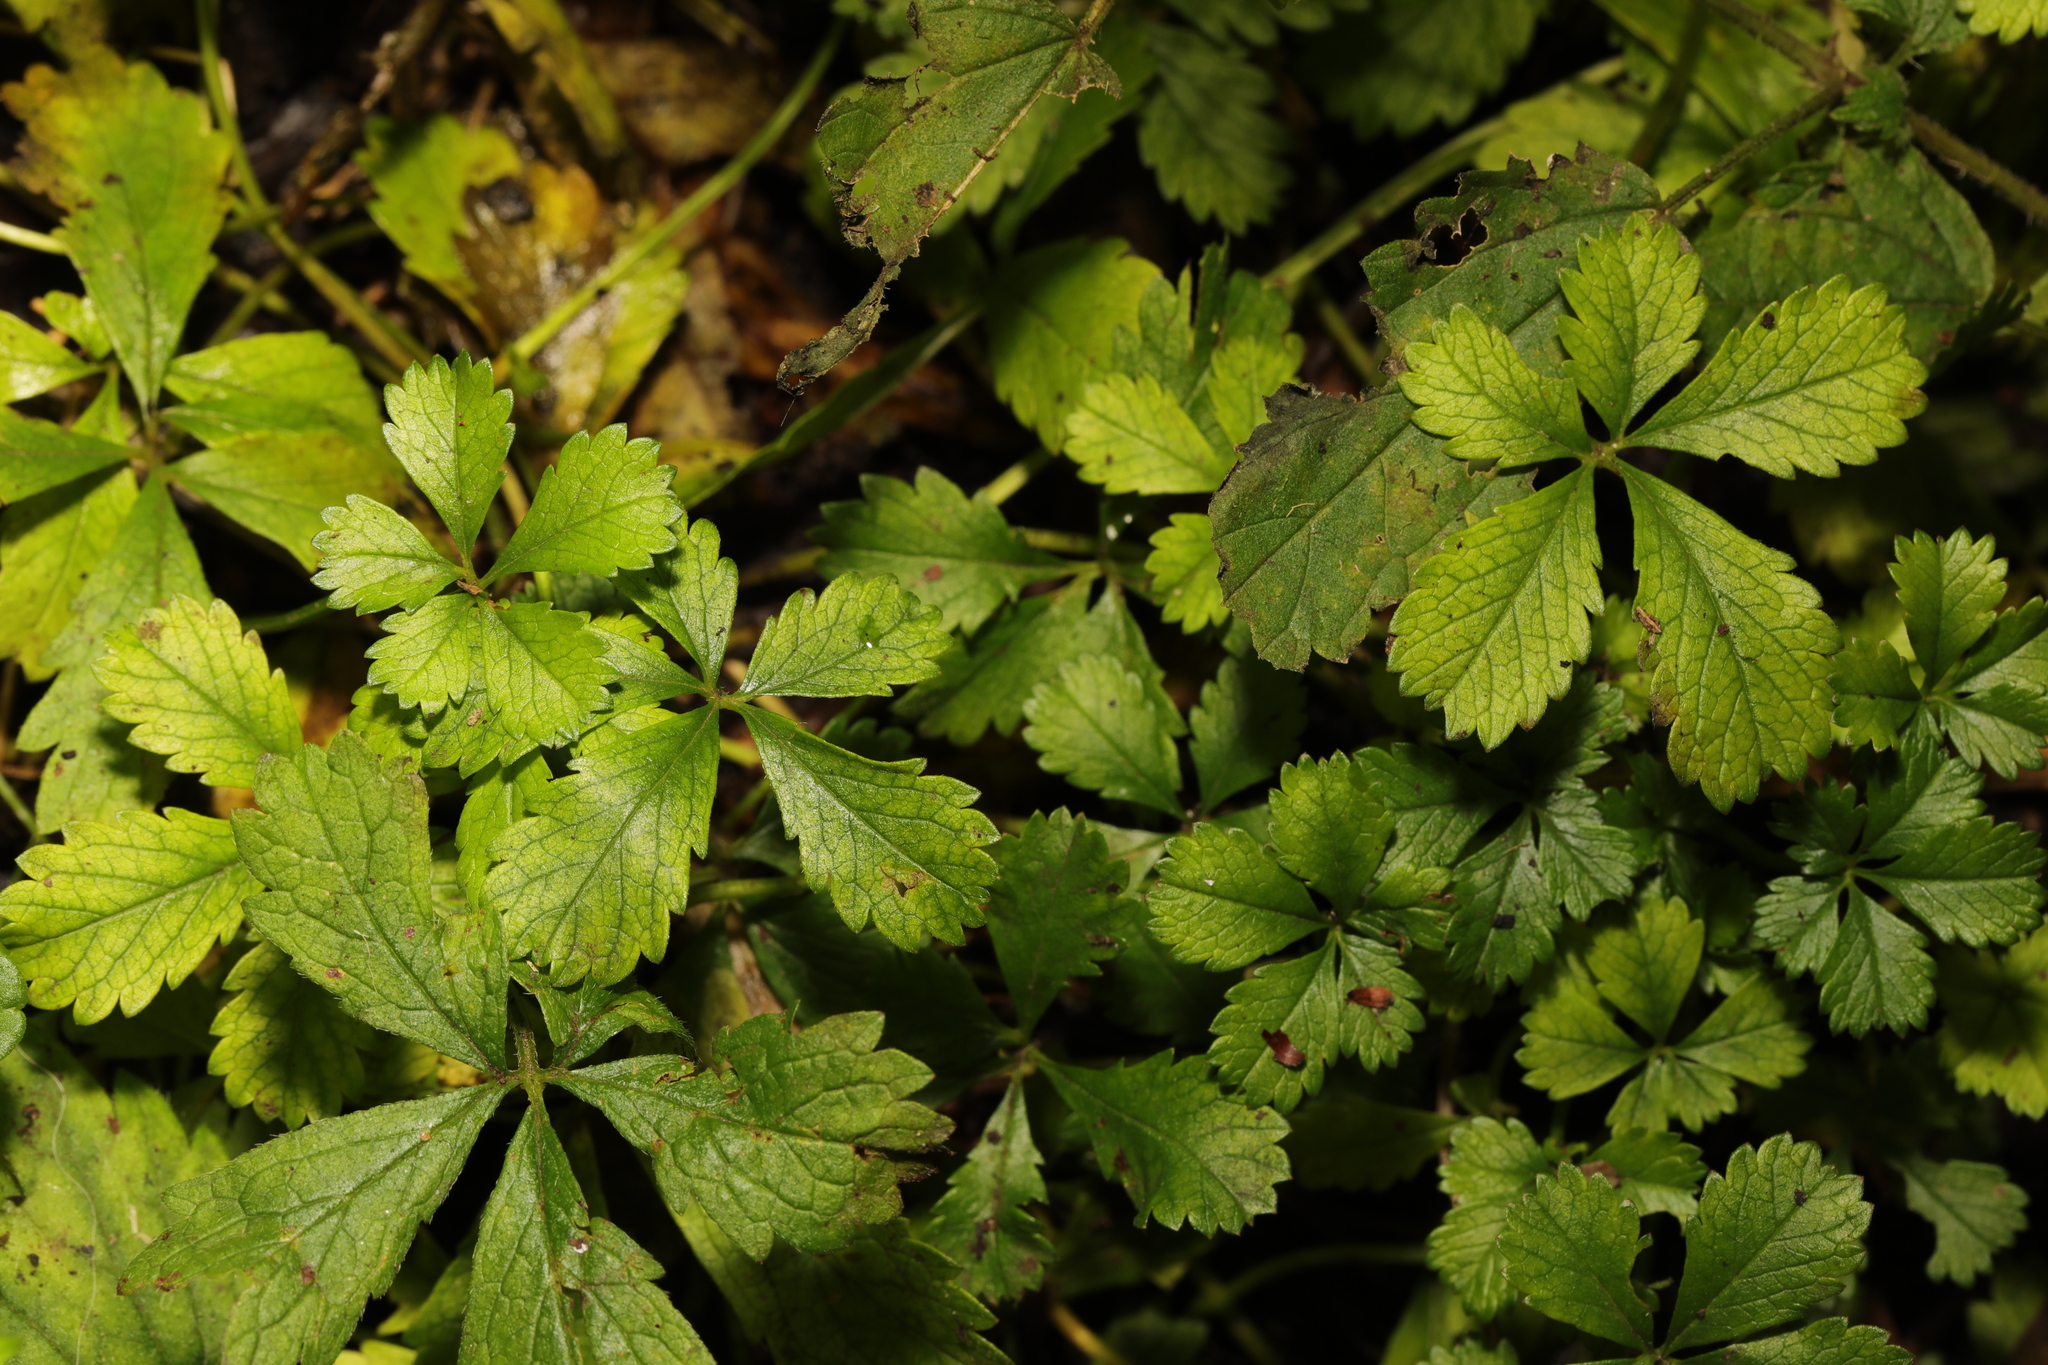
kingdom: Plantae
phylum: Tracheophyta
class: Magnoliopsida
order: Rosales
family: Rosaceae
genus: Potentilla
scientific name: Potentilla reptans
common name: Creeping cinquefoil
